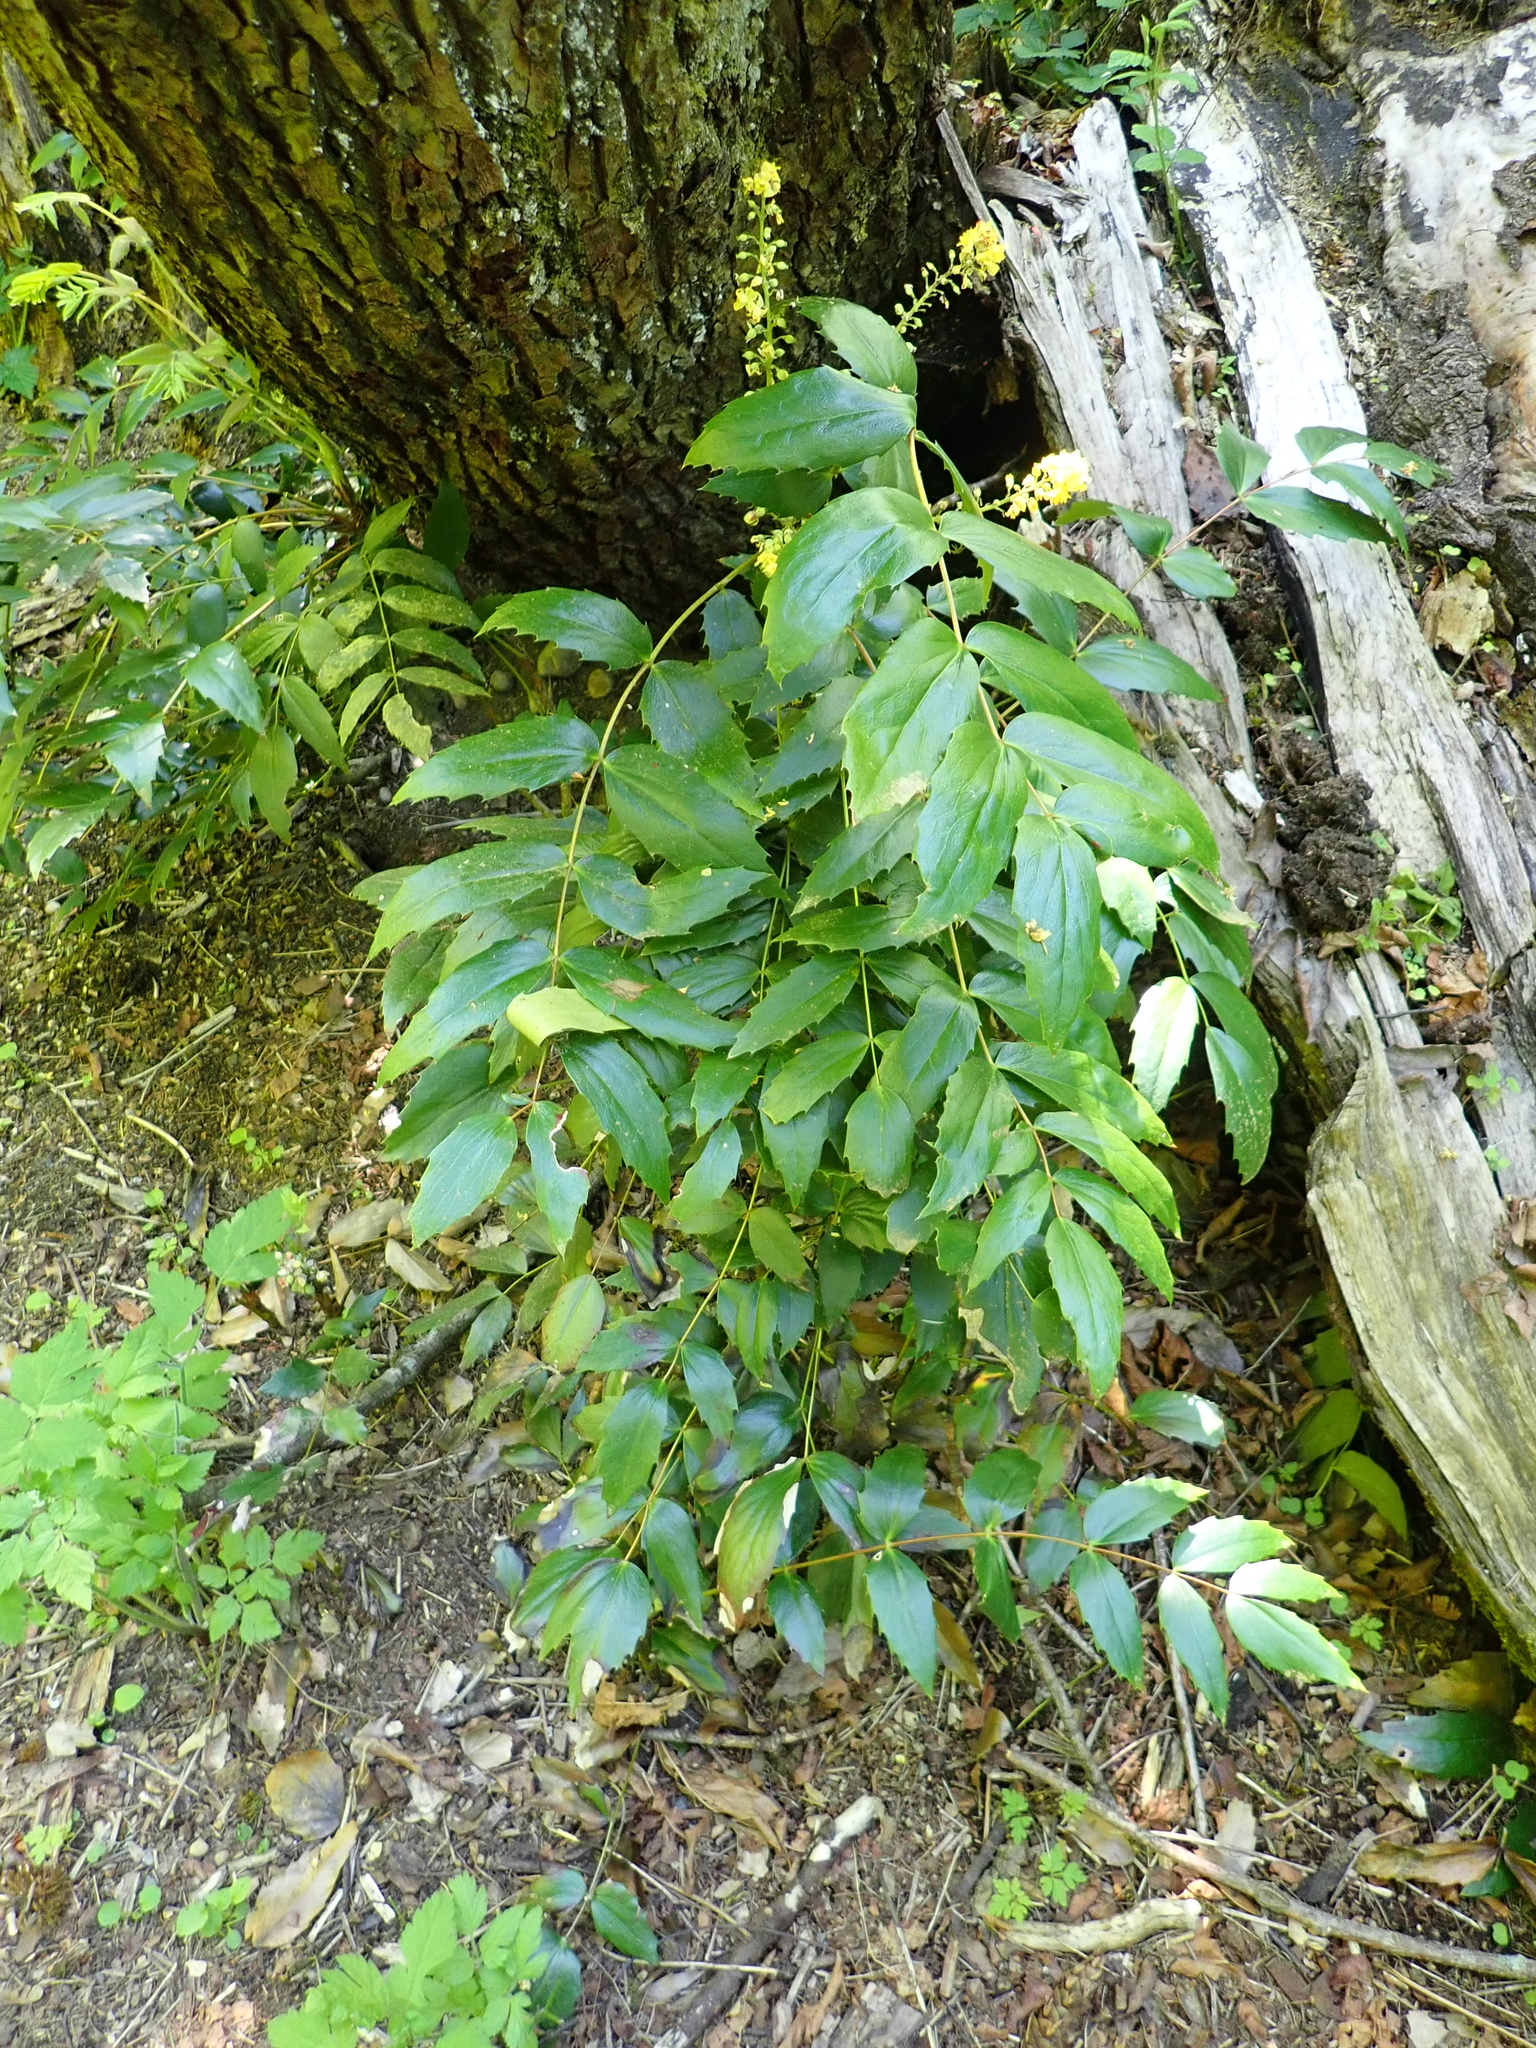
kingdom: Plantae
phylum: Tracheophyta
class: Magnoliopsida
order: Ranunculales
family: Berberidaceae
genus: Mahonia
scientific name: Mahonia nervosa
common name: Cascade oregon-grape
